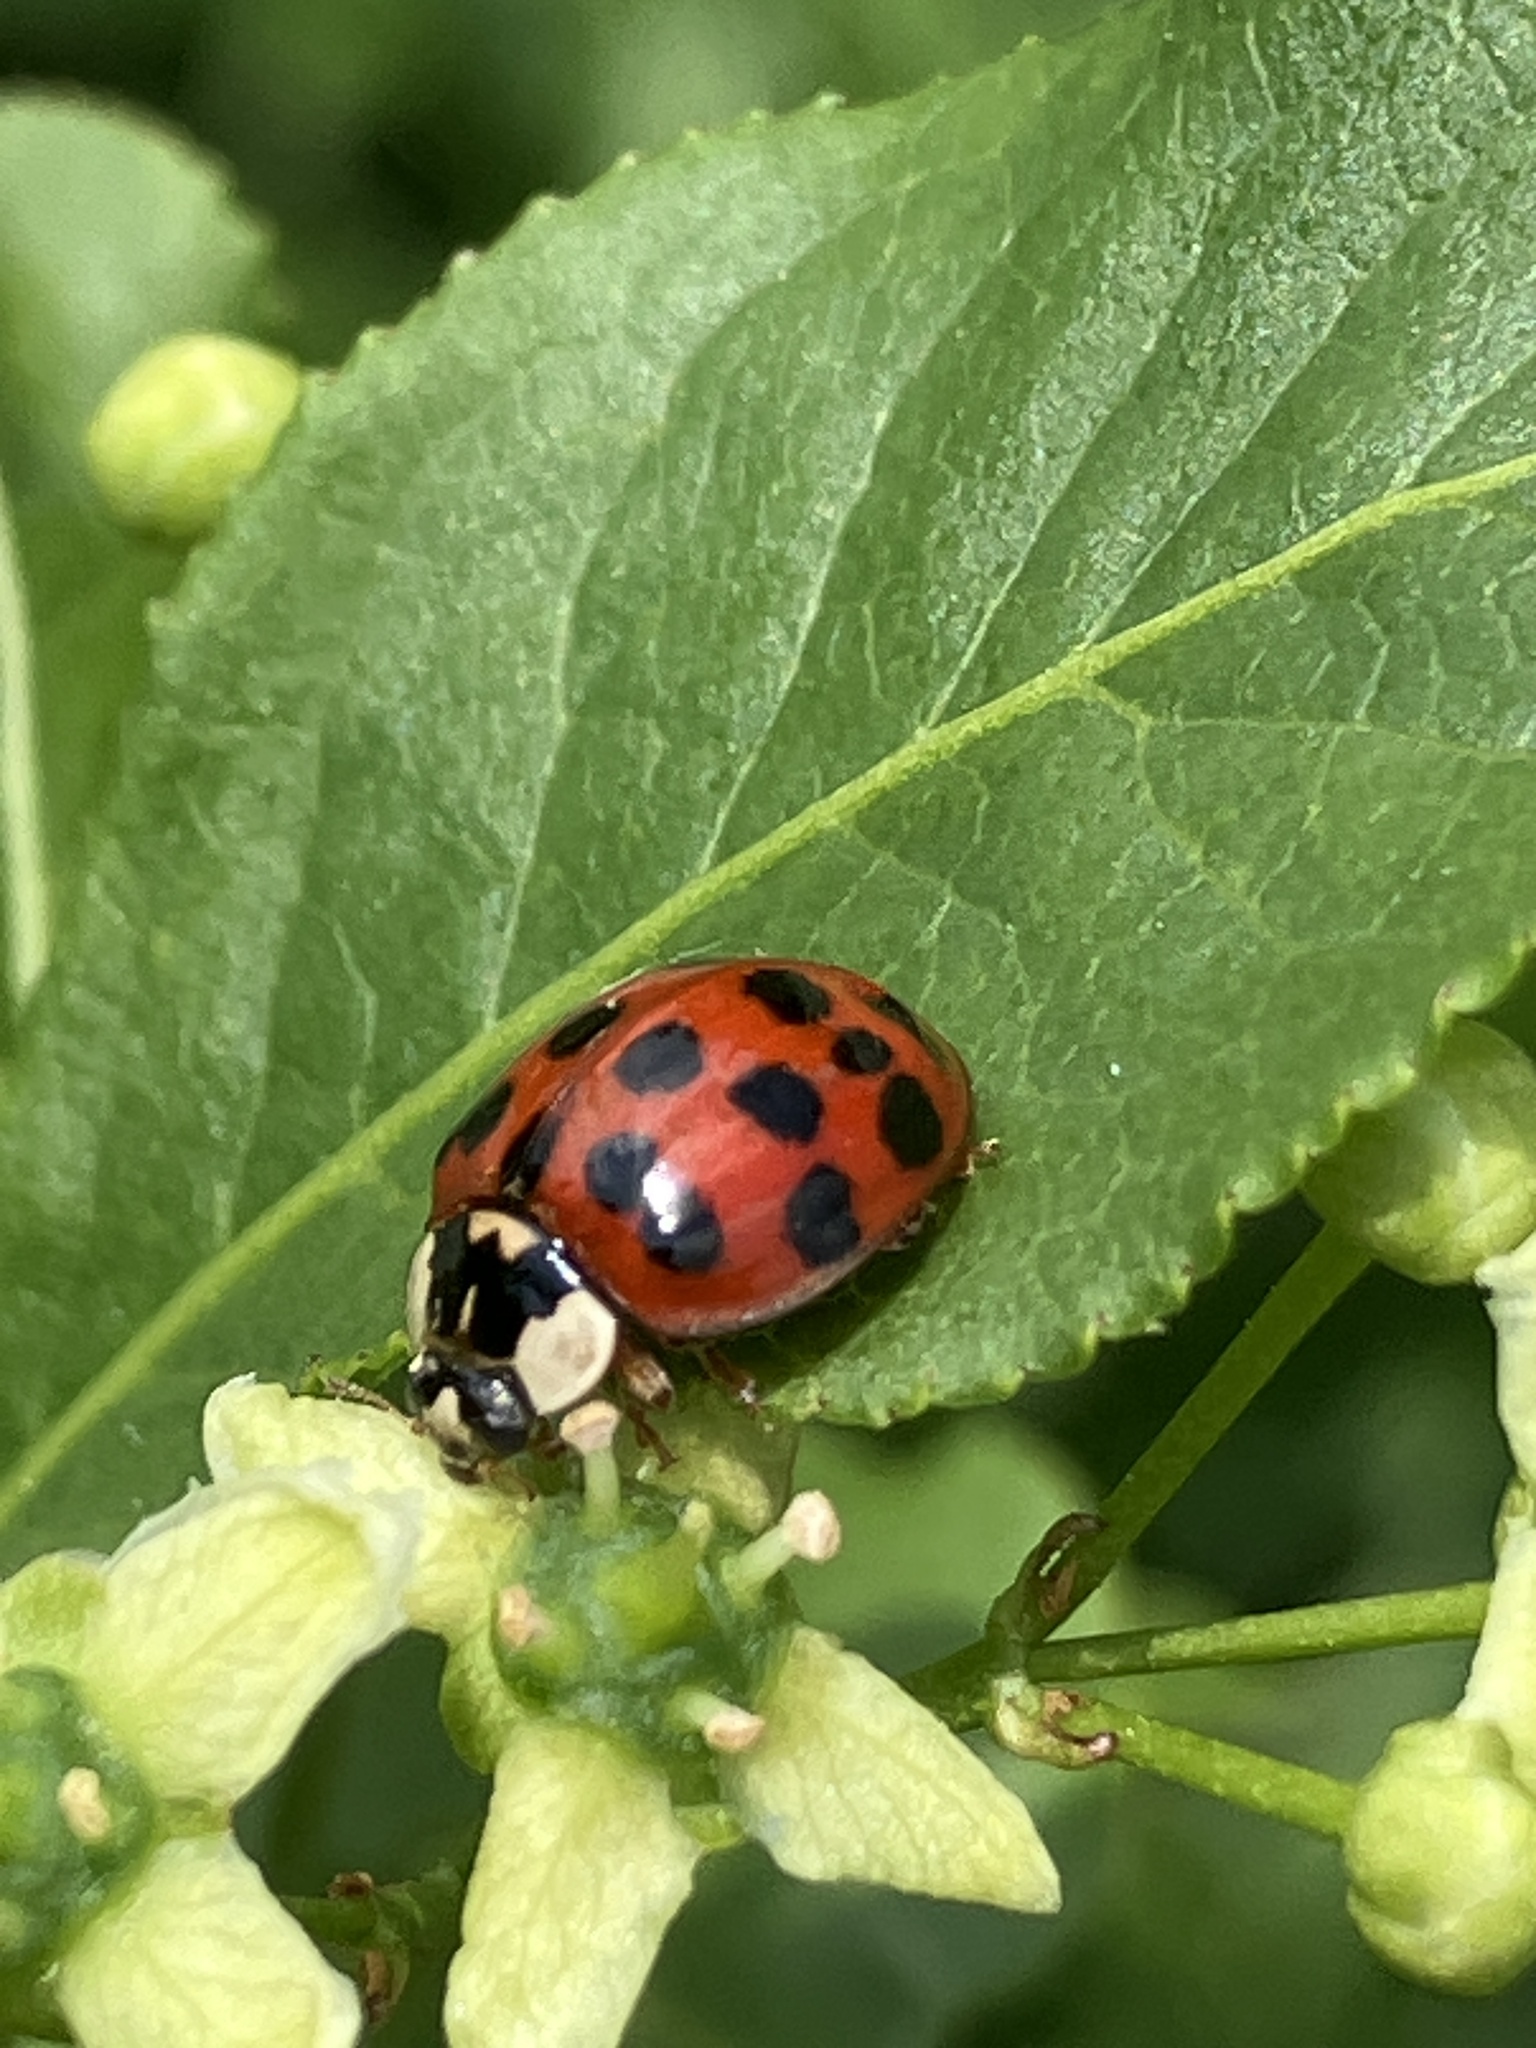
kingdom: Animalia
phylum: Arthropoda
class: Insecta
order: Coleoptera
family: Coccinellidae
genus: Harmonia
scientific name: Harmonia axyridis
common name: Harlequin ladybird
